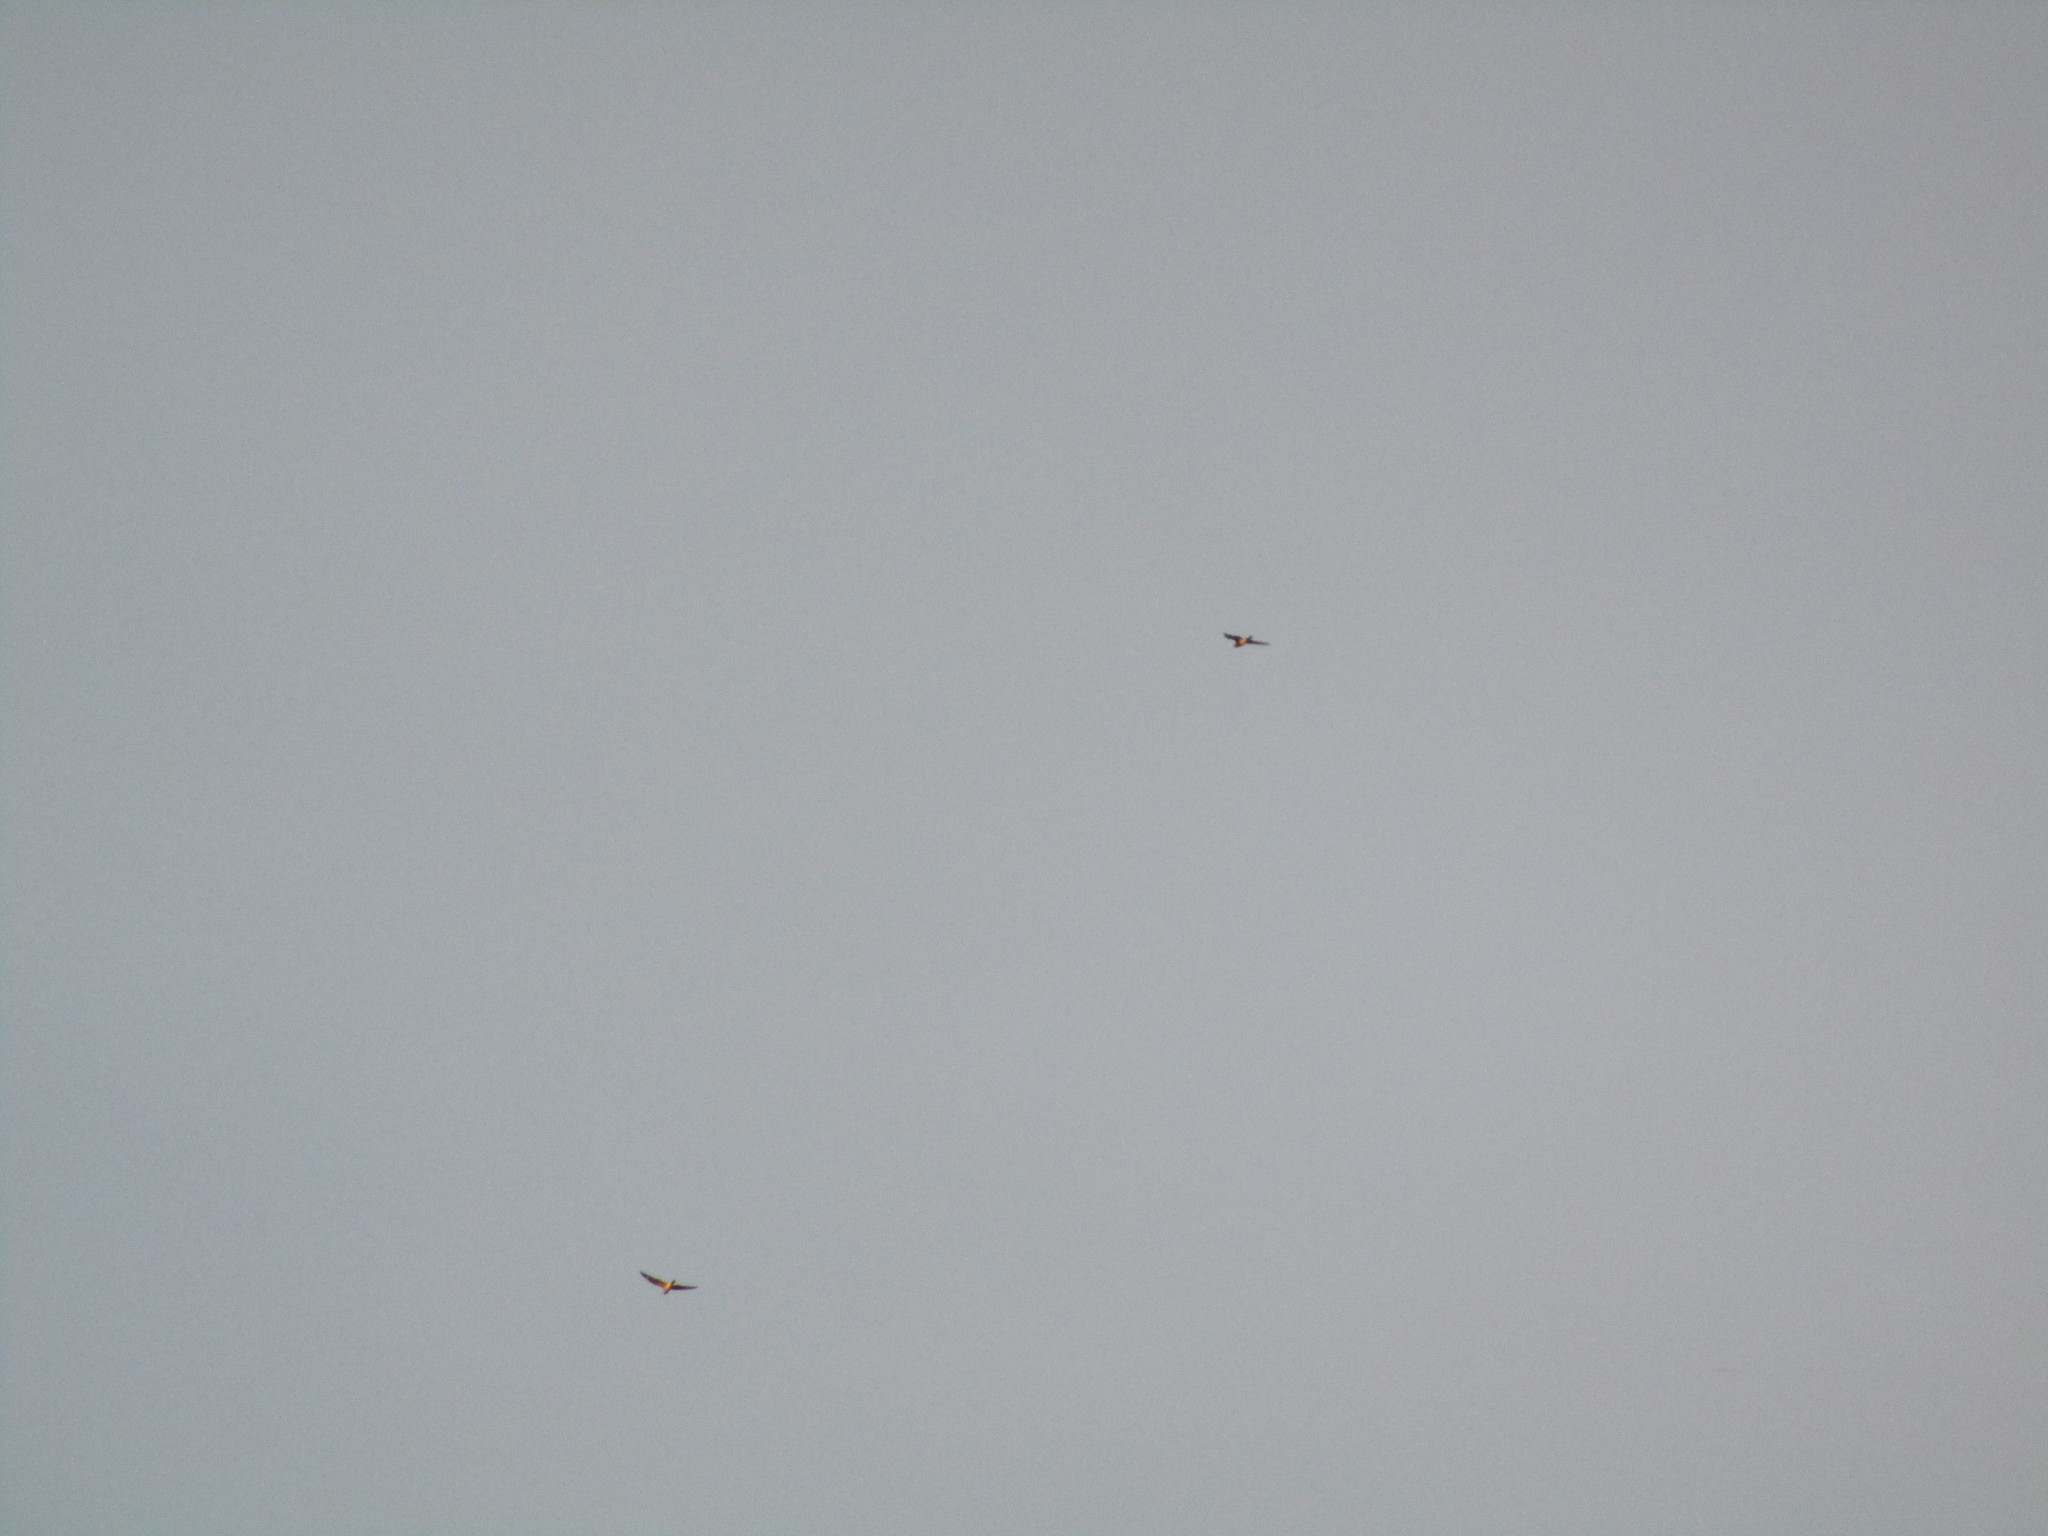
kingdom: Animalia
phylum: Chordata
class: Aves
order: Caprimulgiformes
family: Caprimulgidae
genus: Chordeiles
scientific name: Chordeiles minor
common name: Common nighthawk
